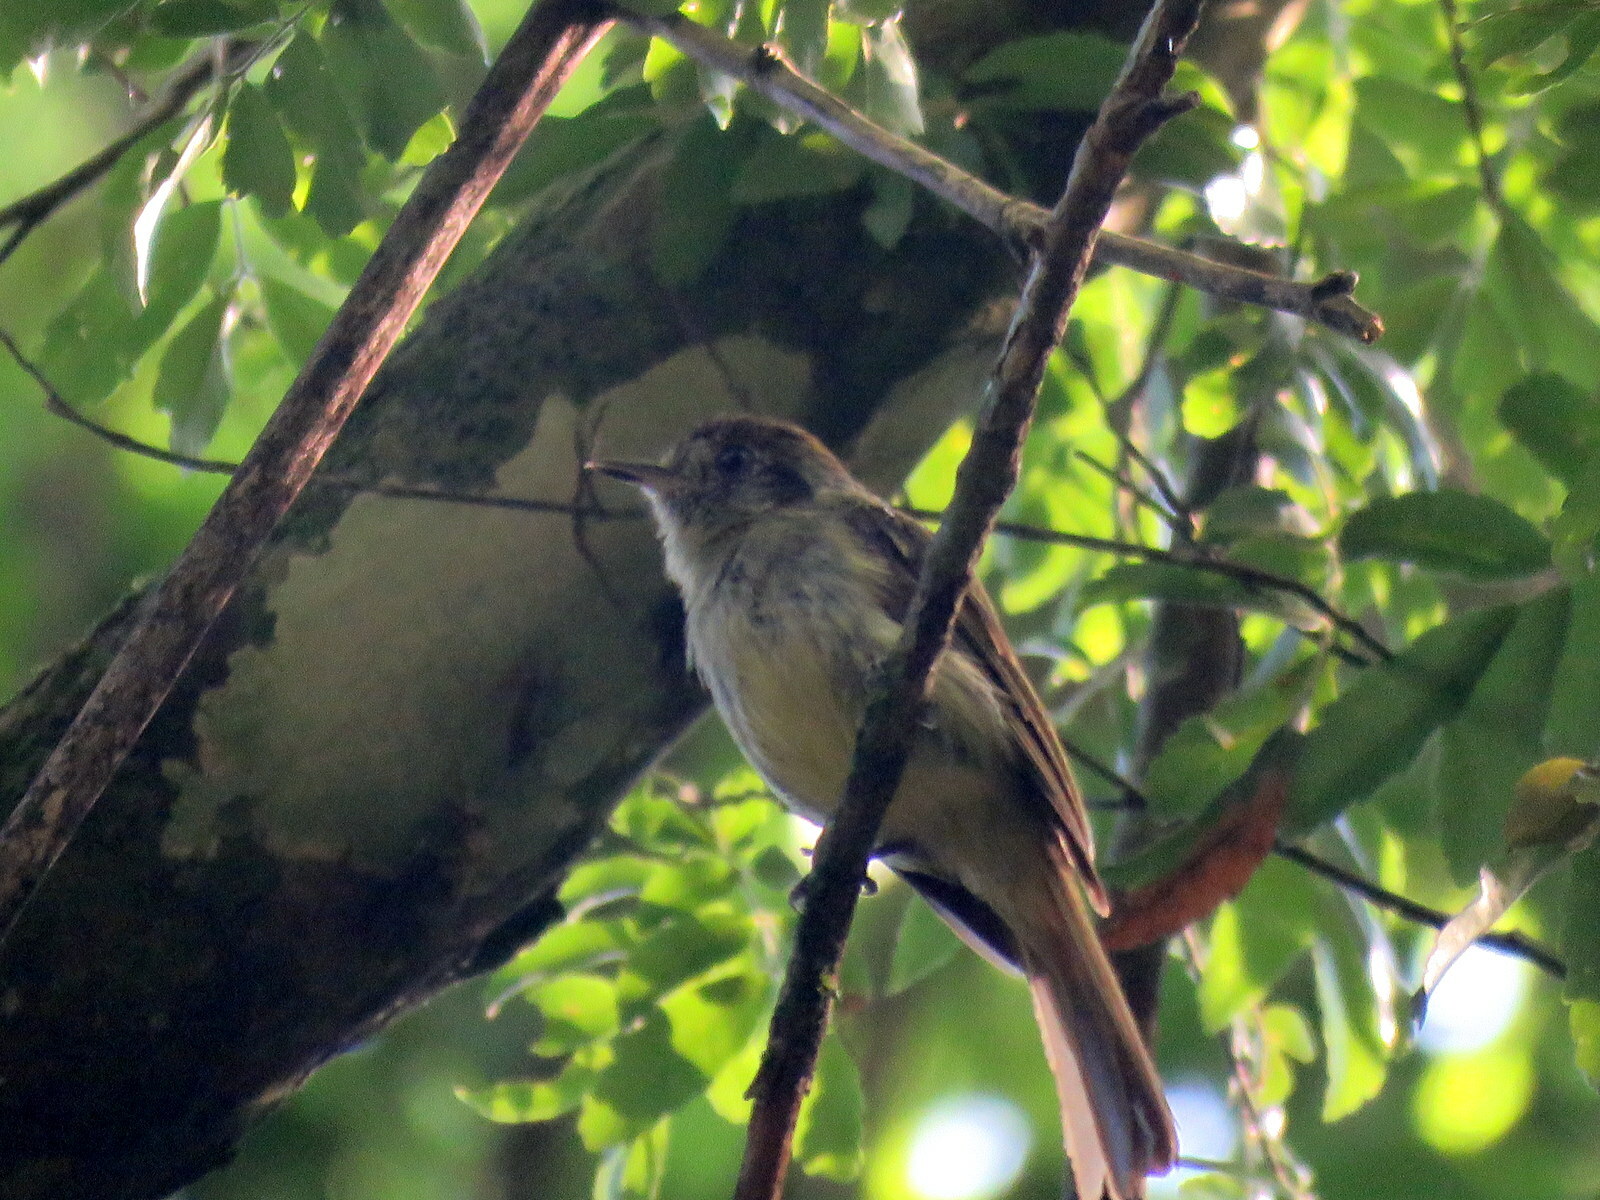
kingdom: Animalia
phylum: Chordata
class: Aves
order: Passeriformes
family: Tyrannidae
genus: Leptopogon
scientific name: Leptopogon amaurocephalus
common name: Sepia-capped flycatcher
